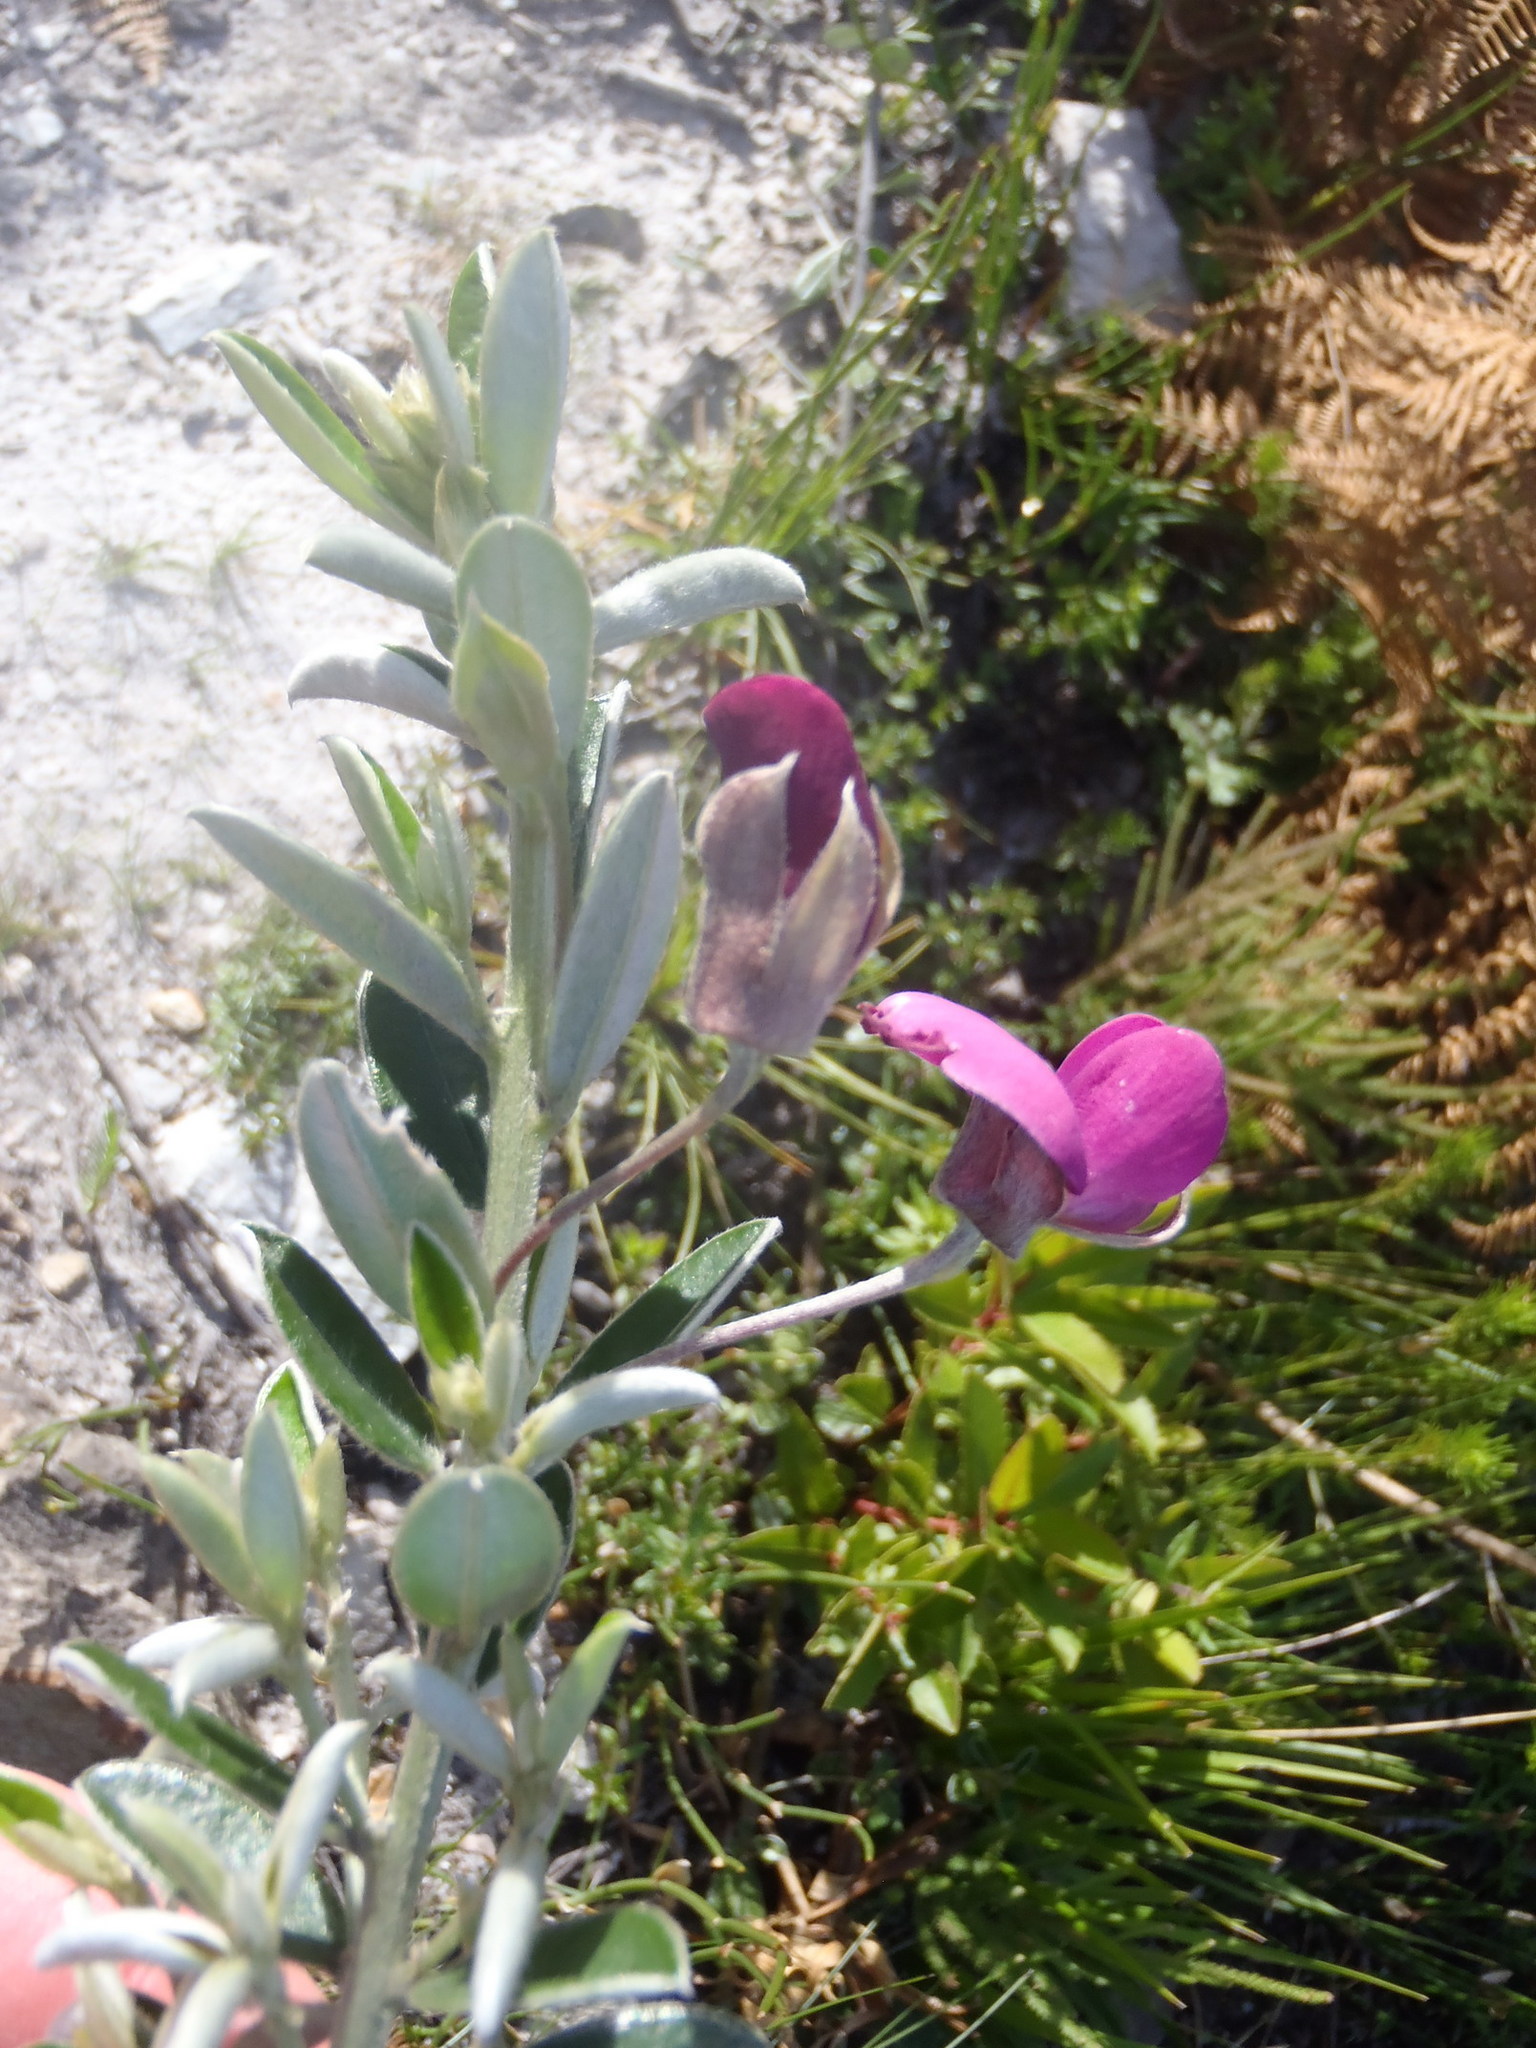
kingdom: Plantae
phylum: Tracheophyta
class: Magnoliopsida
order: Fabales
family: Fabaceae
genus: Podalyria
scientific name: Podalyria buxifolia
